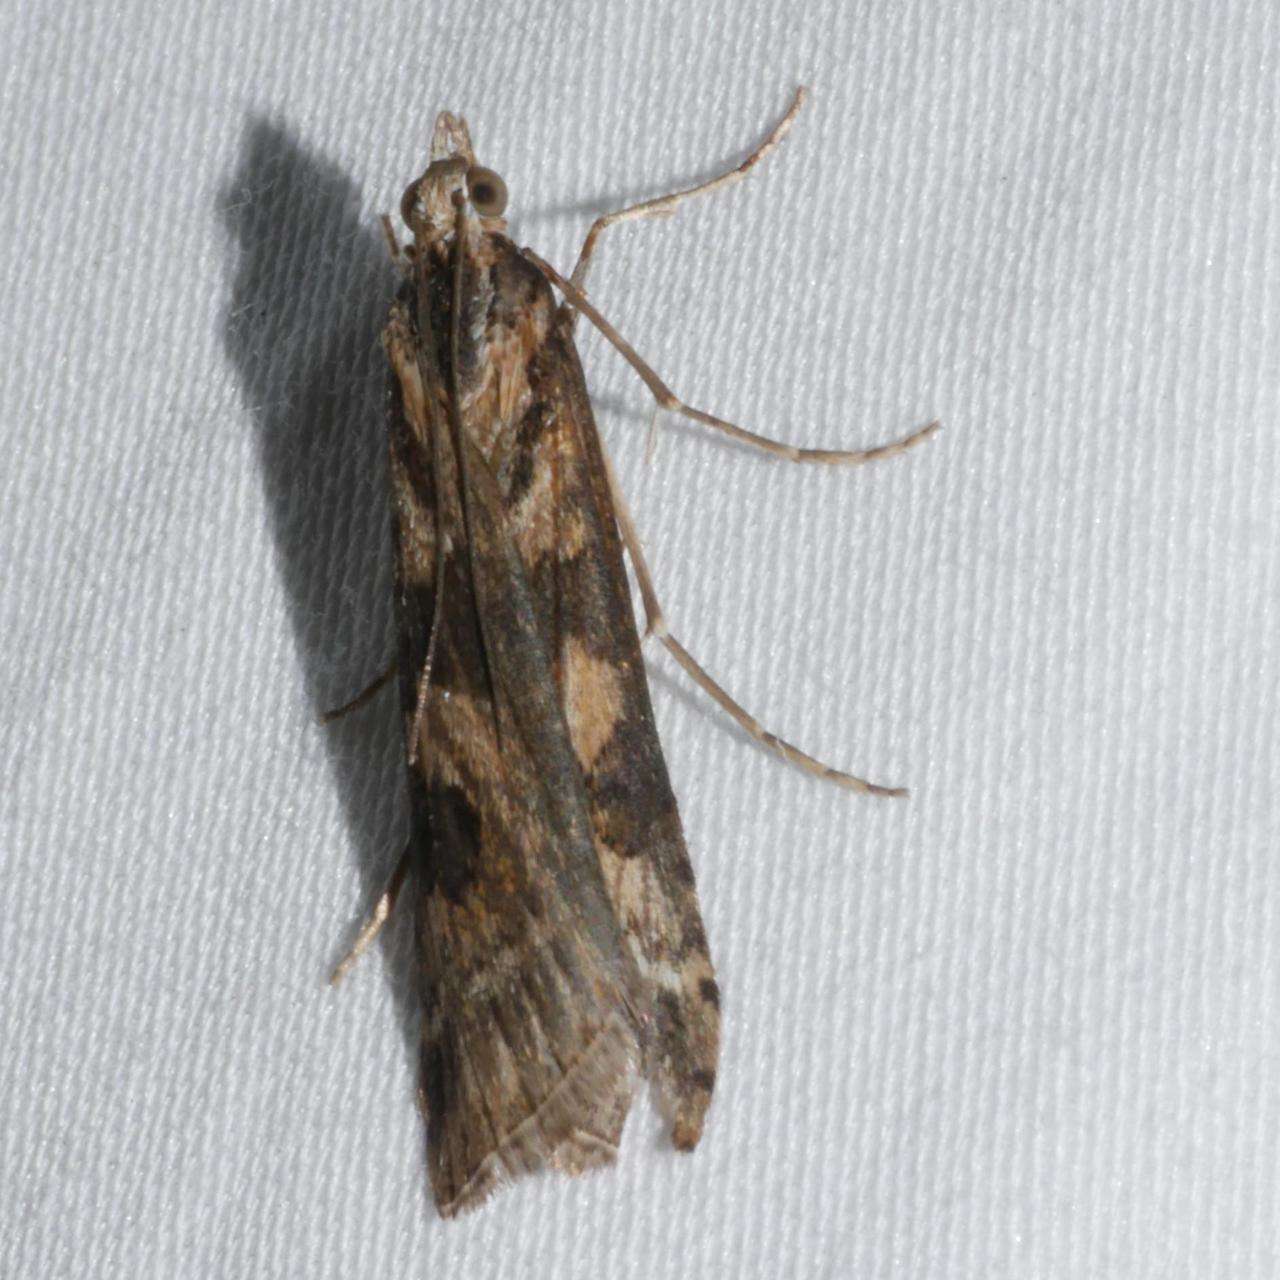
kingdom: Animalia
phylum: Arthropoda
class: Insecta
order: Lepidoptera
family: Crambidae
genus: Nomophila
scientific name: Nomophila corticalis
